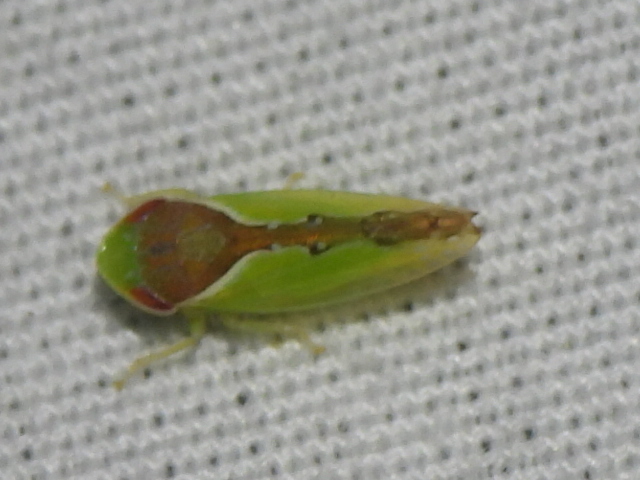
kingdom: Animalia
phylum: Arthropoda
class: Insecta
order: Hemiptera
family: Cicadellidae
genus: Omansobara ing
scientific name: Omansobara ing Omansobara palliolata
